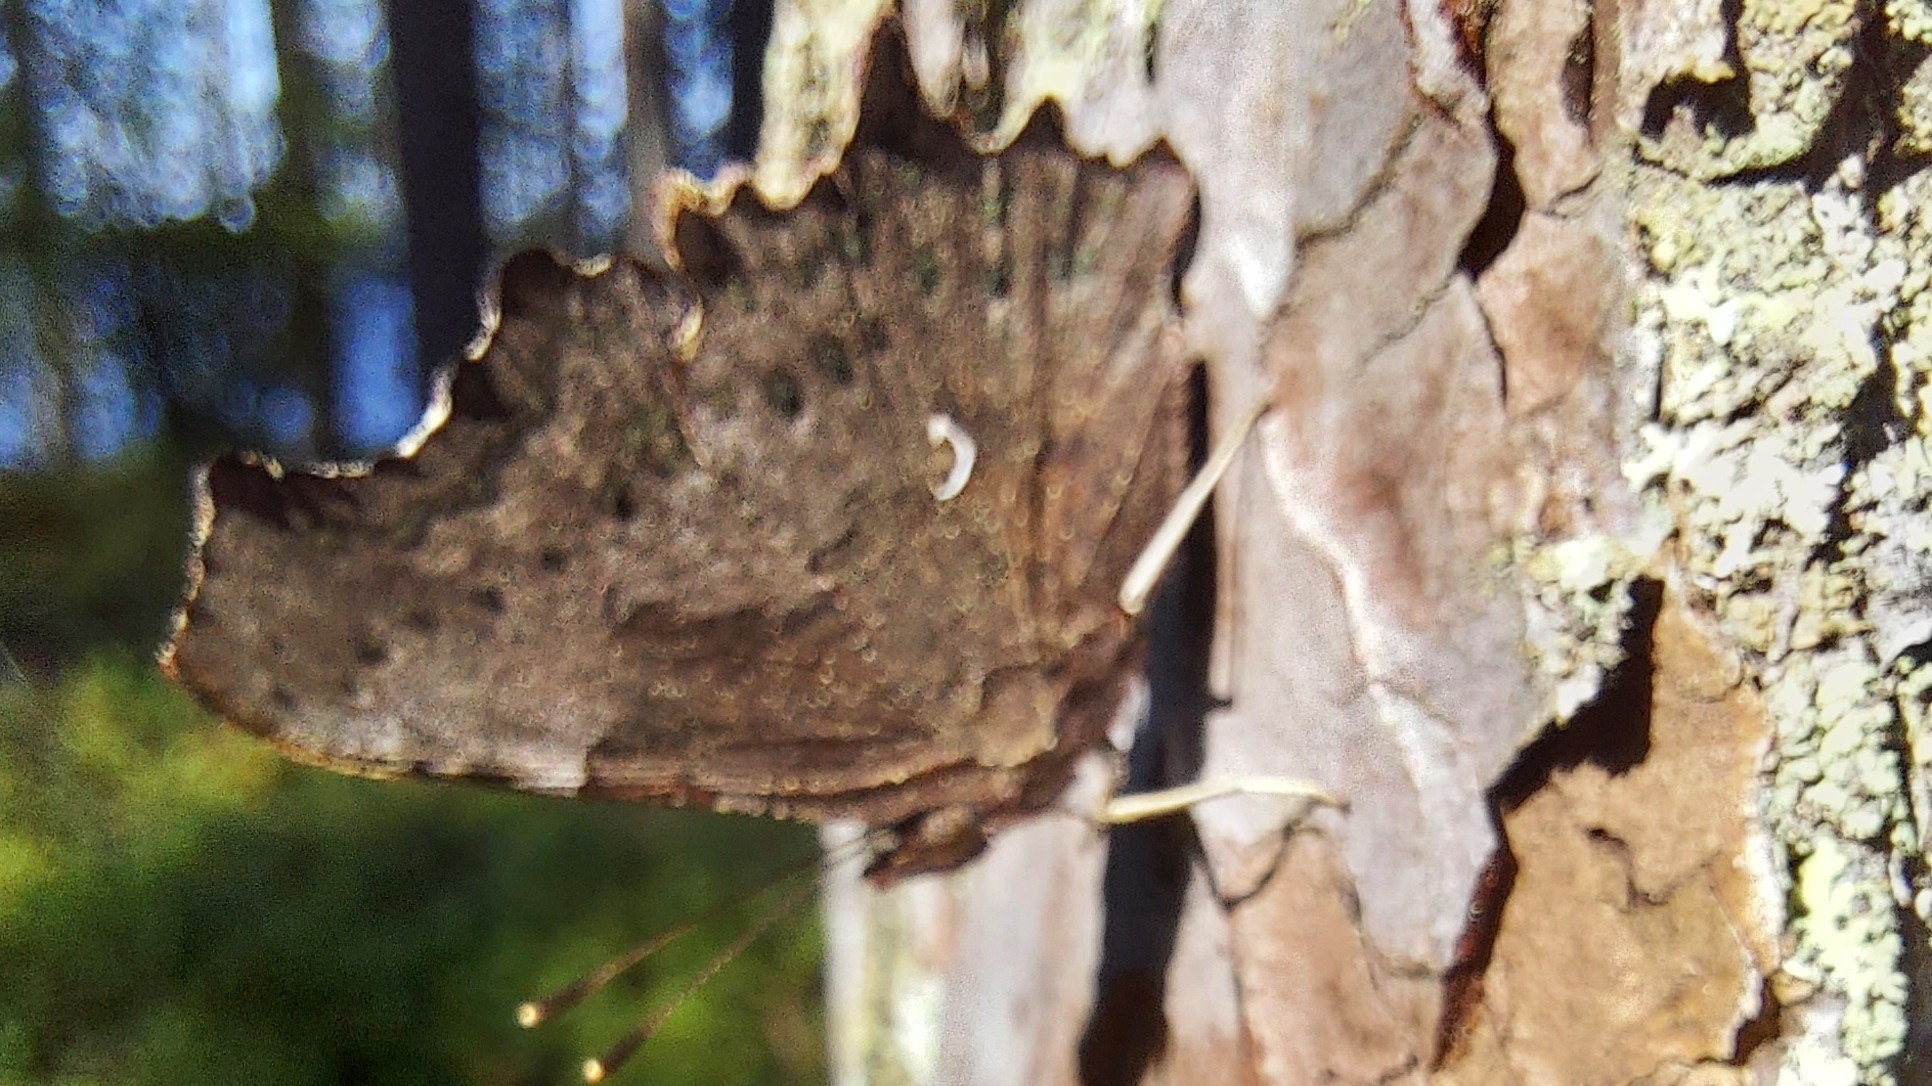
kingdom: Animalia
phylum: Arthropoda
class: Insecta
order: Lepidoptera
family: Nymphalidae
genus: Polygonia
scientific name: Polygonia c-album
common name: Comma
